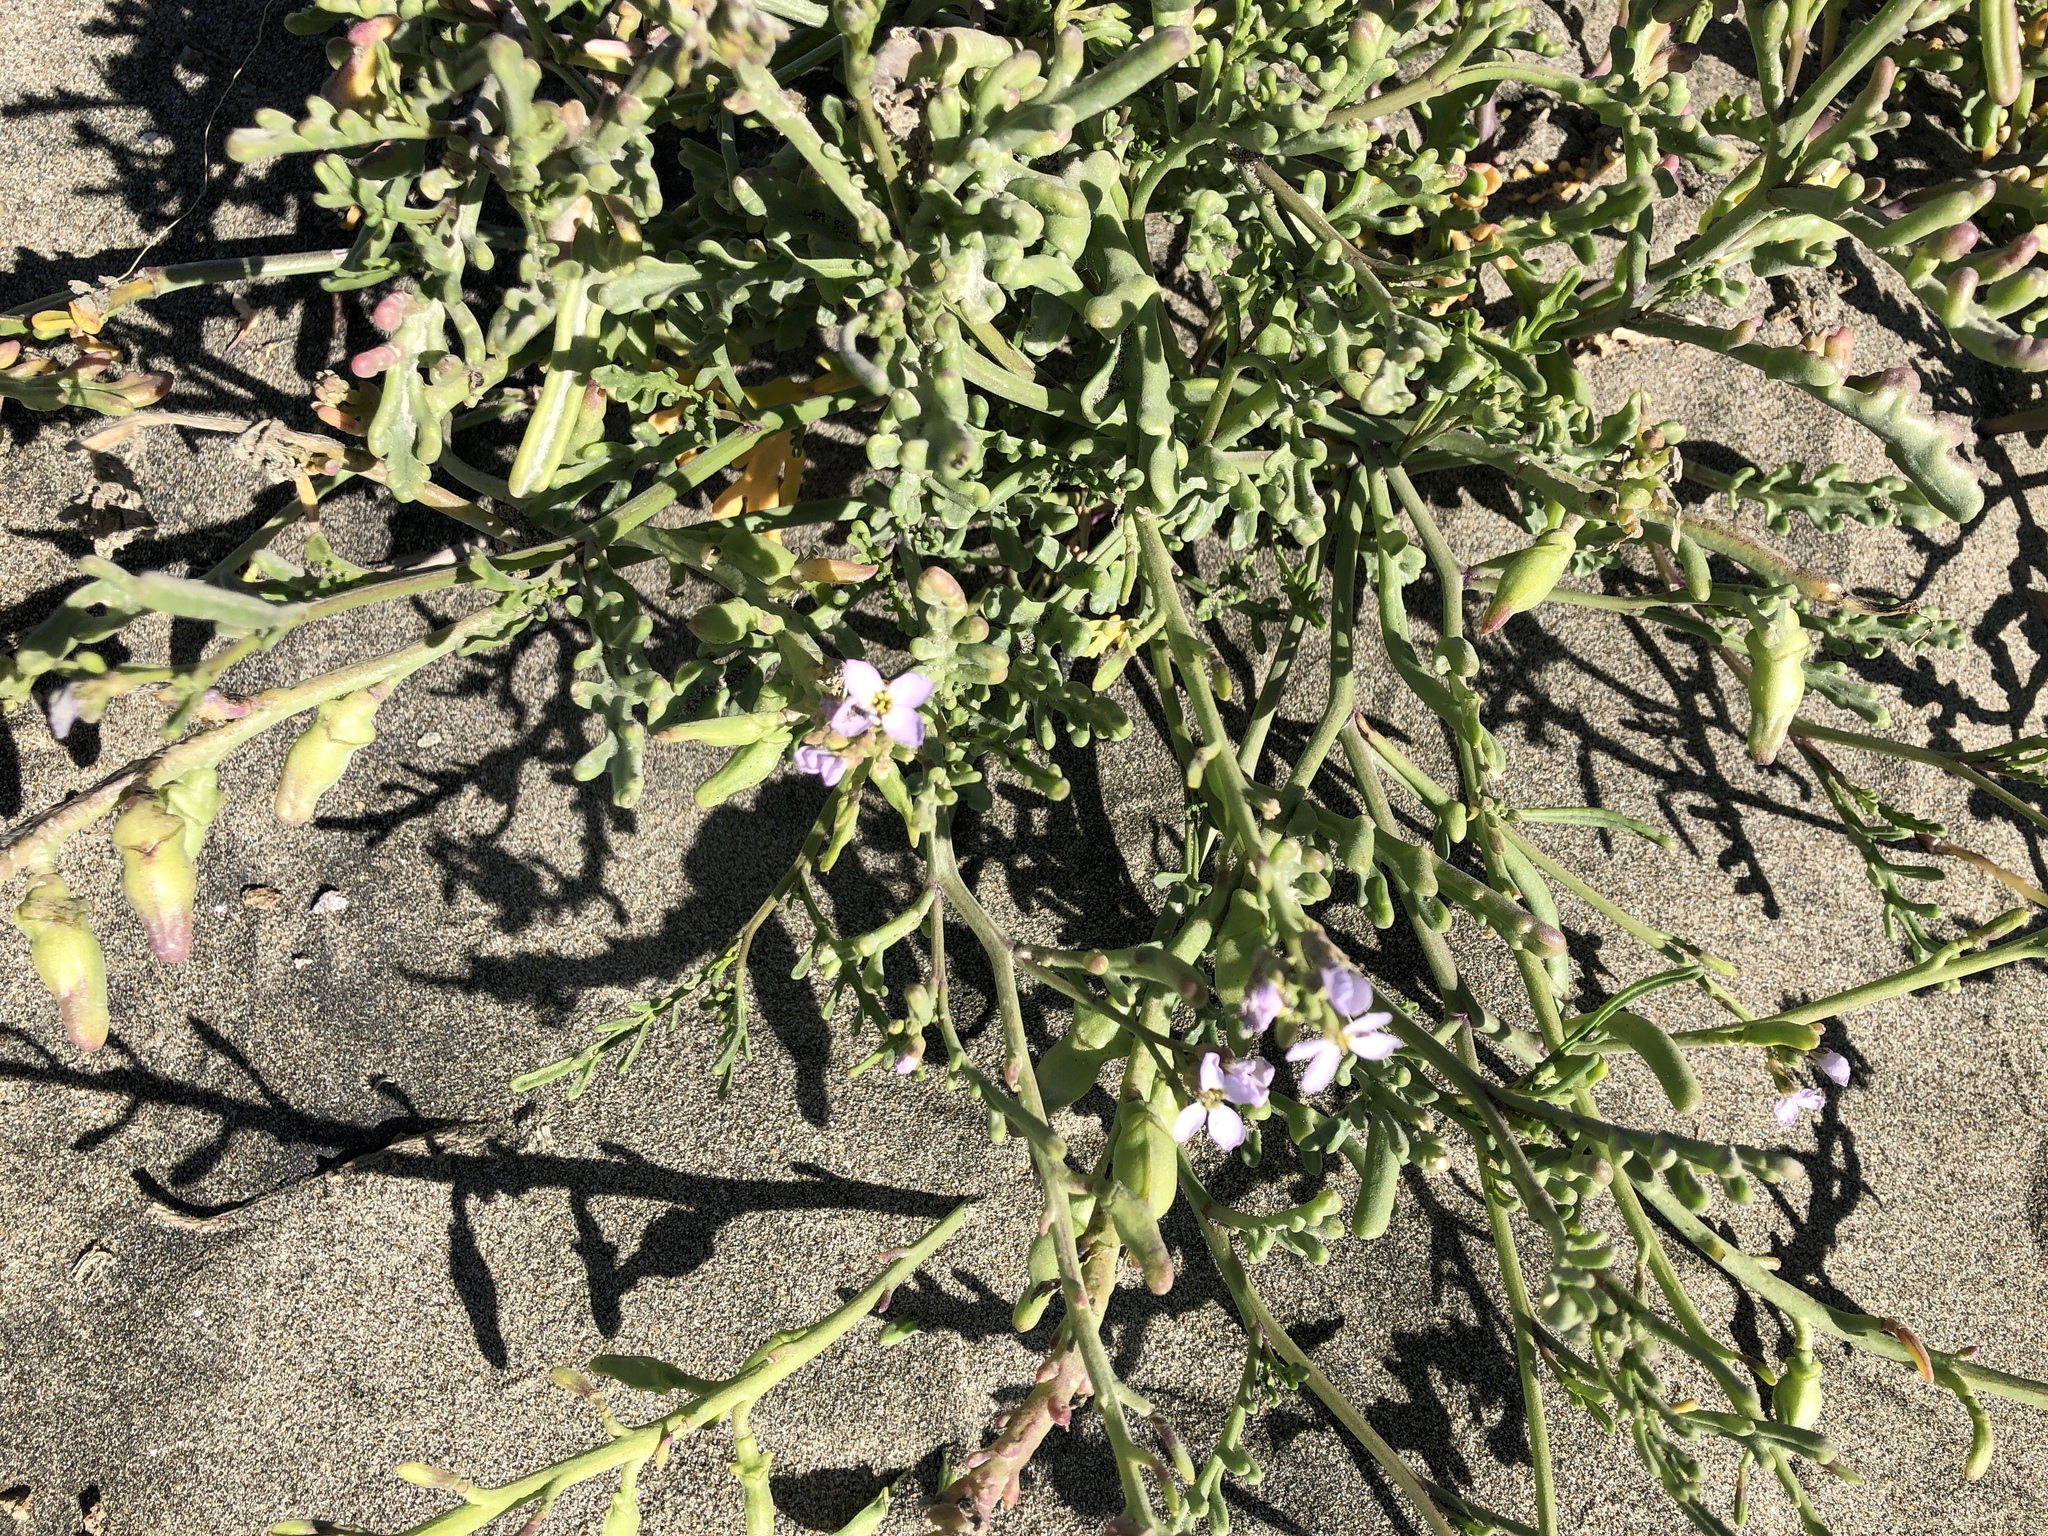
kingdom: Plantae
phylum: Tracheophyta
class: Magnoliopsida
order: Brassicales
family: Brassicaceae
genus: Cakile
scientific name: Cakile maritima
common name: Sea rocket
